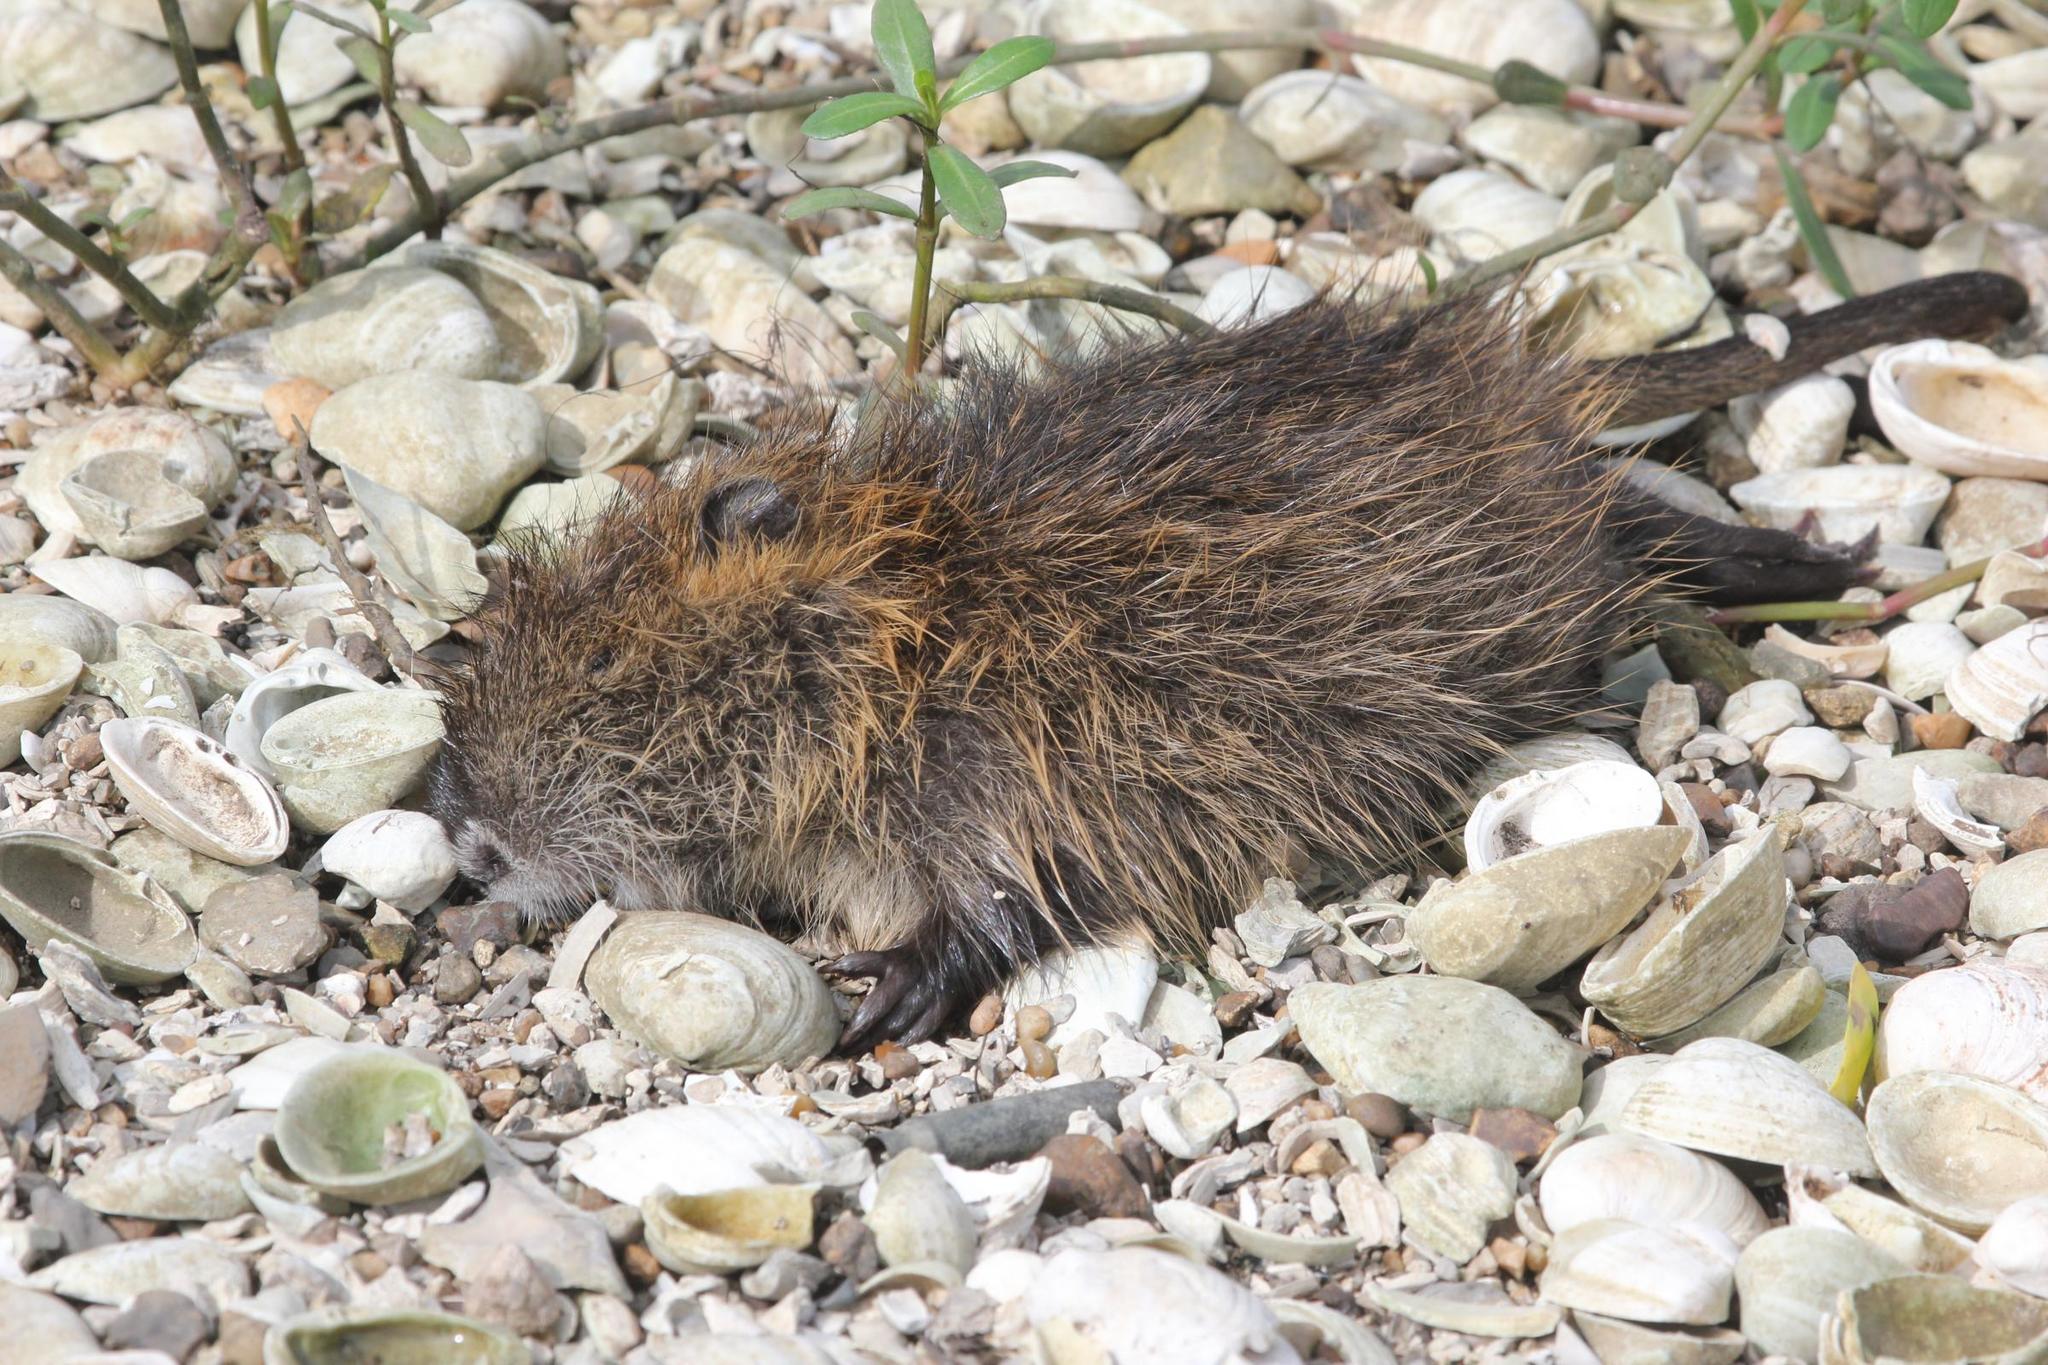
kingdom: Animalia
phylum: Chordata
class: Mammalia
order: Rodentia
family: Myocastoridae
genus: Myocastor
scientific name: Myocastor coypus
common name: Coypu
